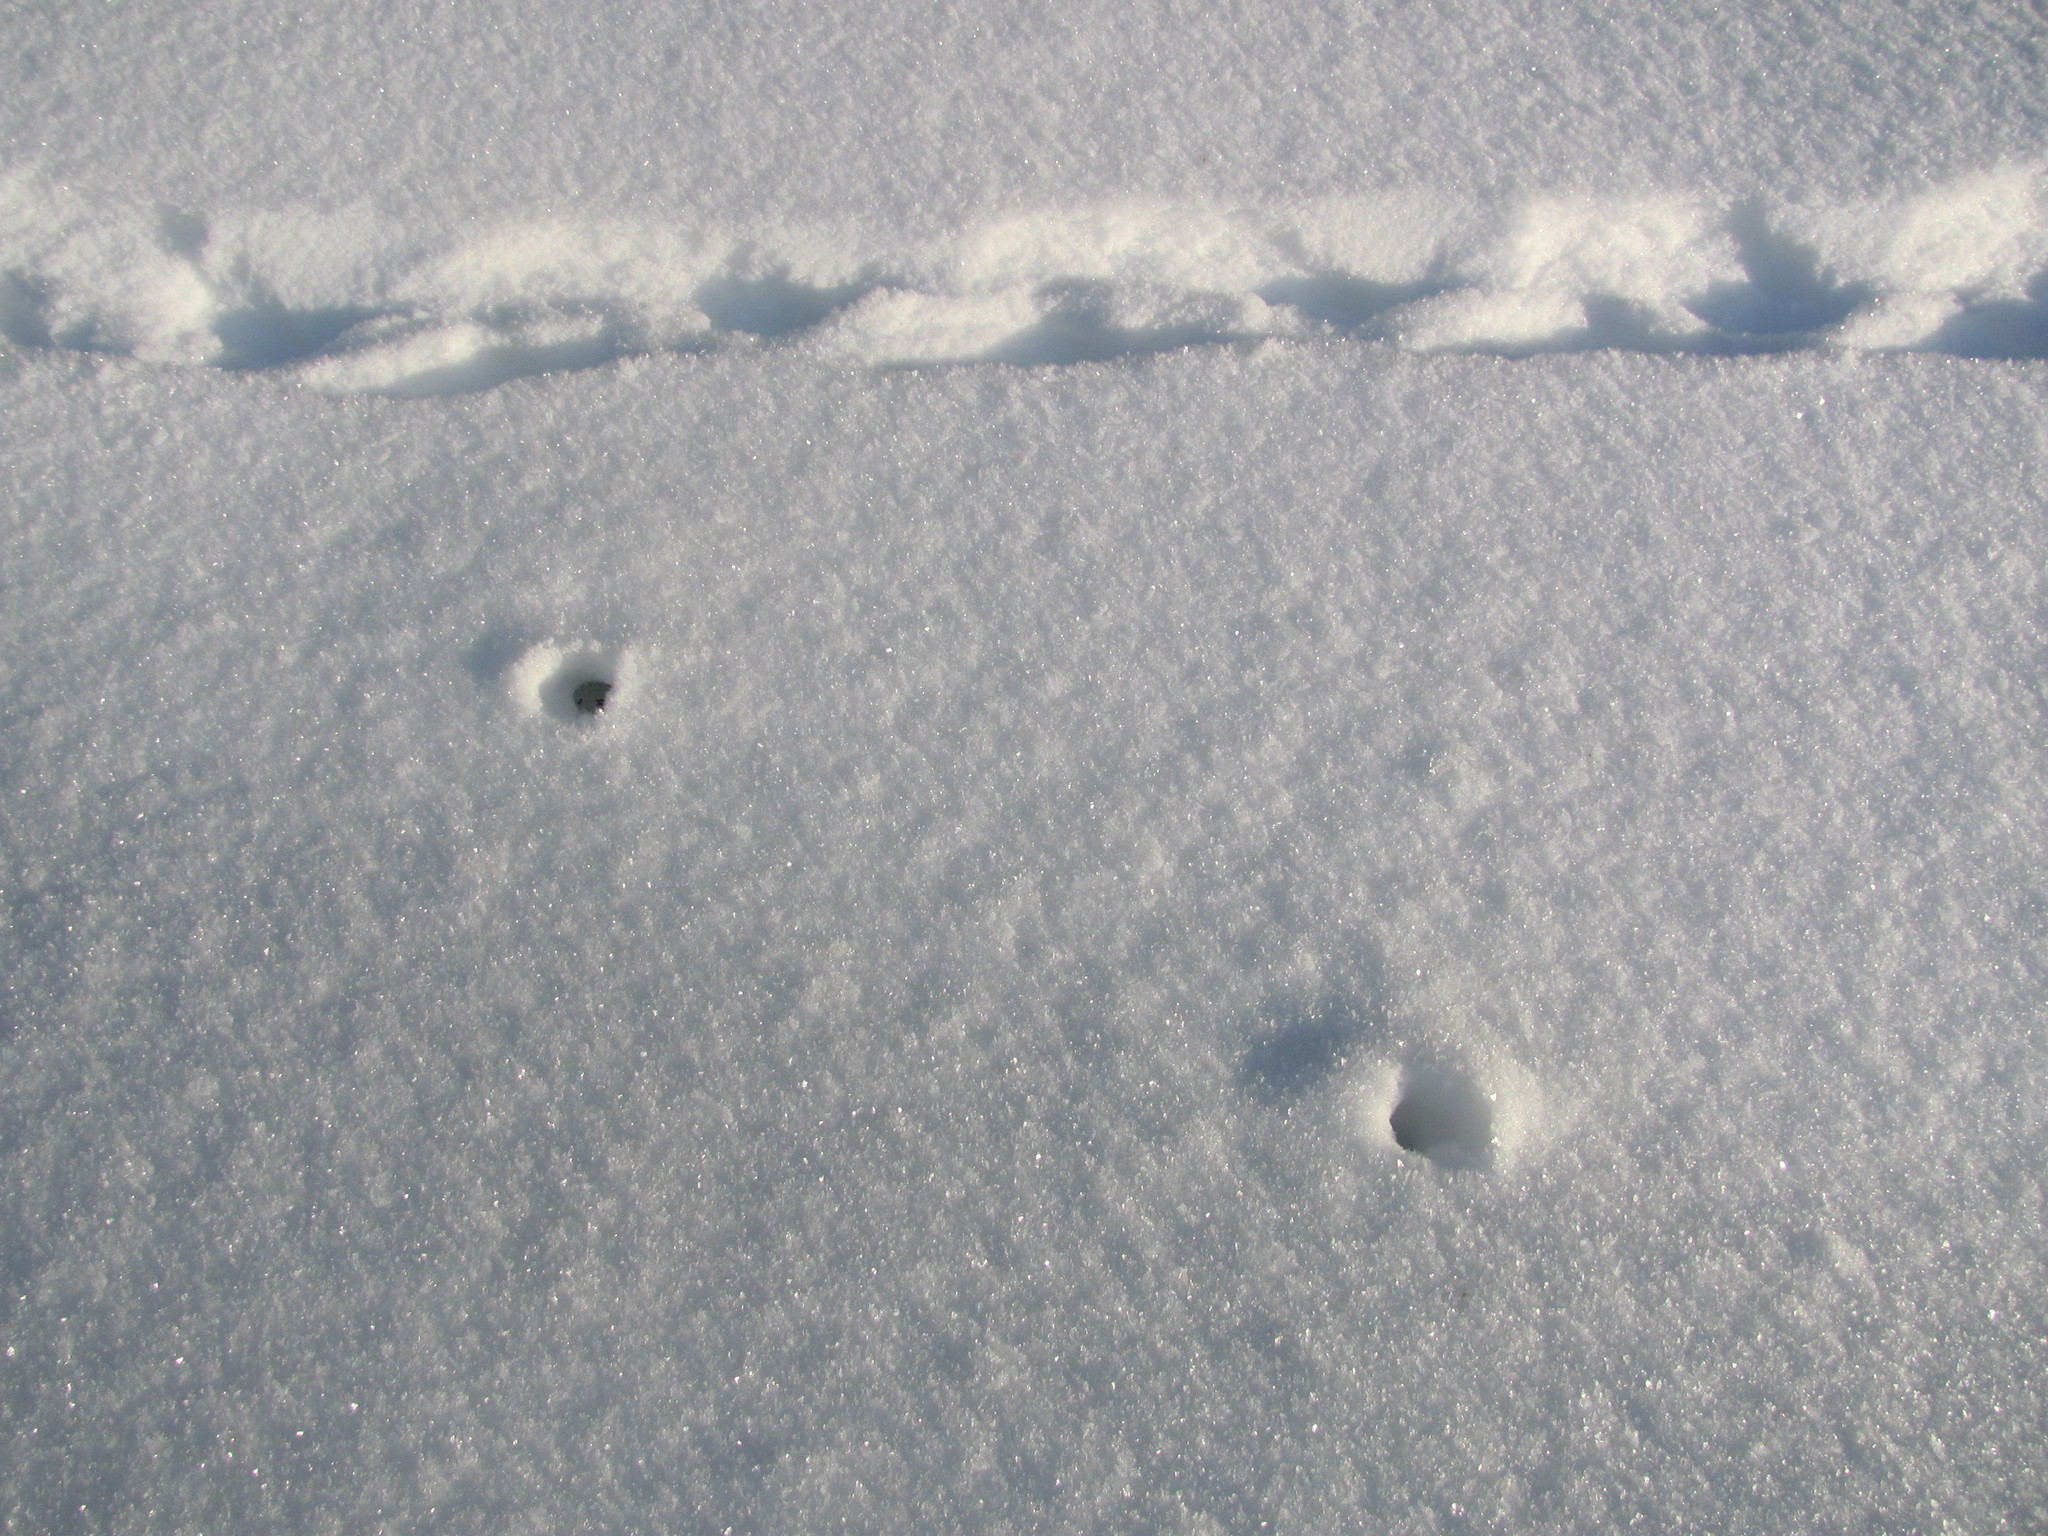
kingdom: Animalia
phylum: Chordata
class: Mammalia
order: Soricomorpha
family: Soricidae
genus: Sorex
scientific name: Sorex araneus
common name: Common shrew
